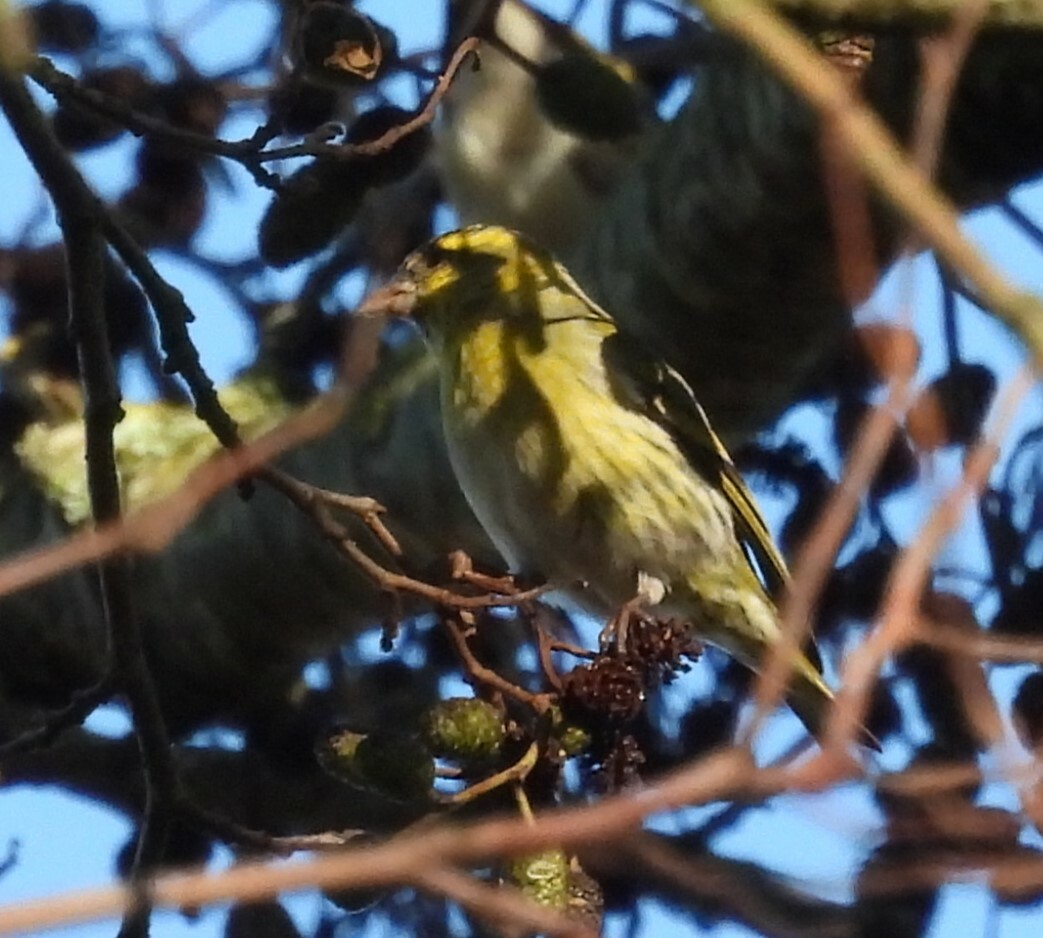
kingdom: Animalia
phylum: Chordata
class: Aves
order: Passeriformes
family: Fringillidae
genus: Spinus
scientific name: Spinus spinus
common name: Eurasian siskin
